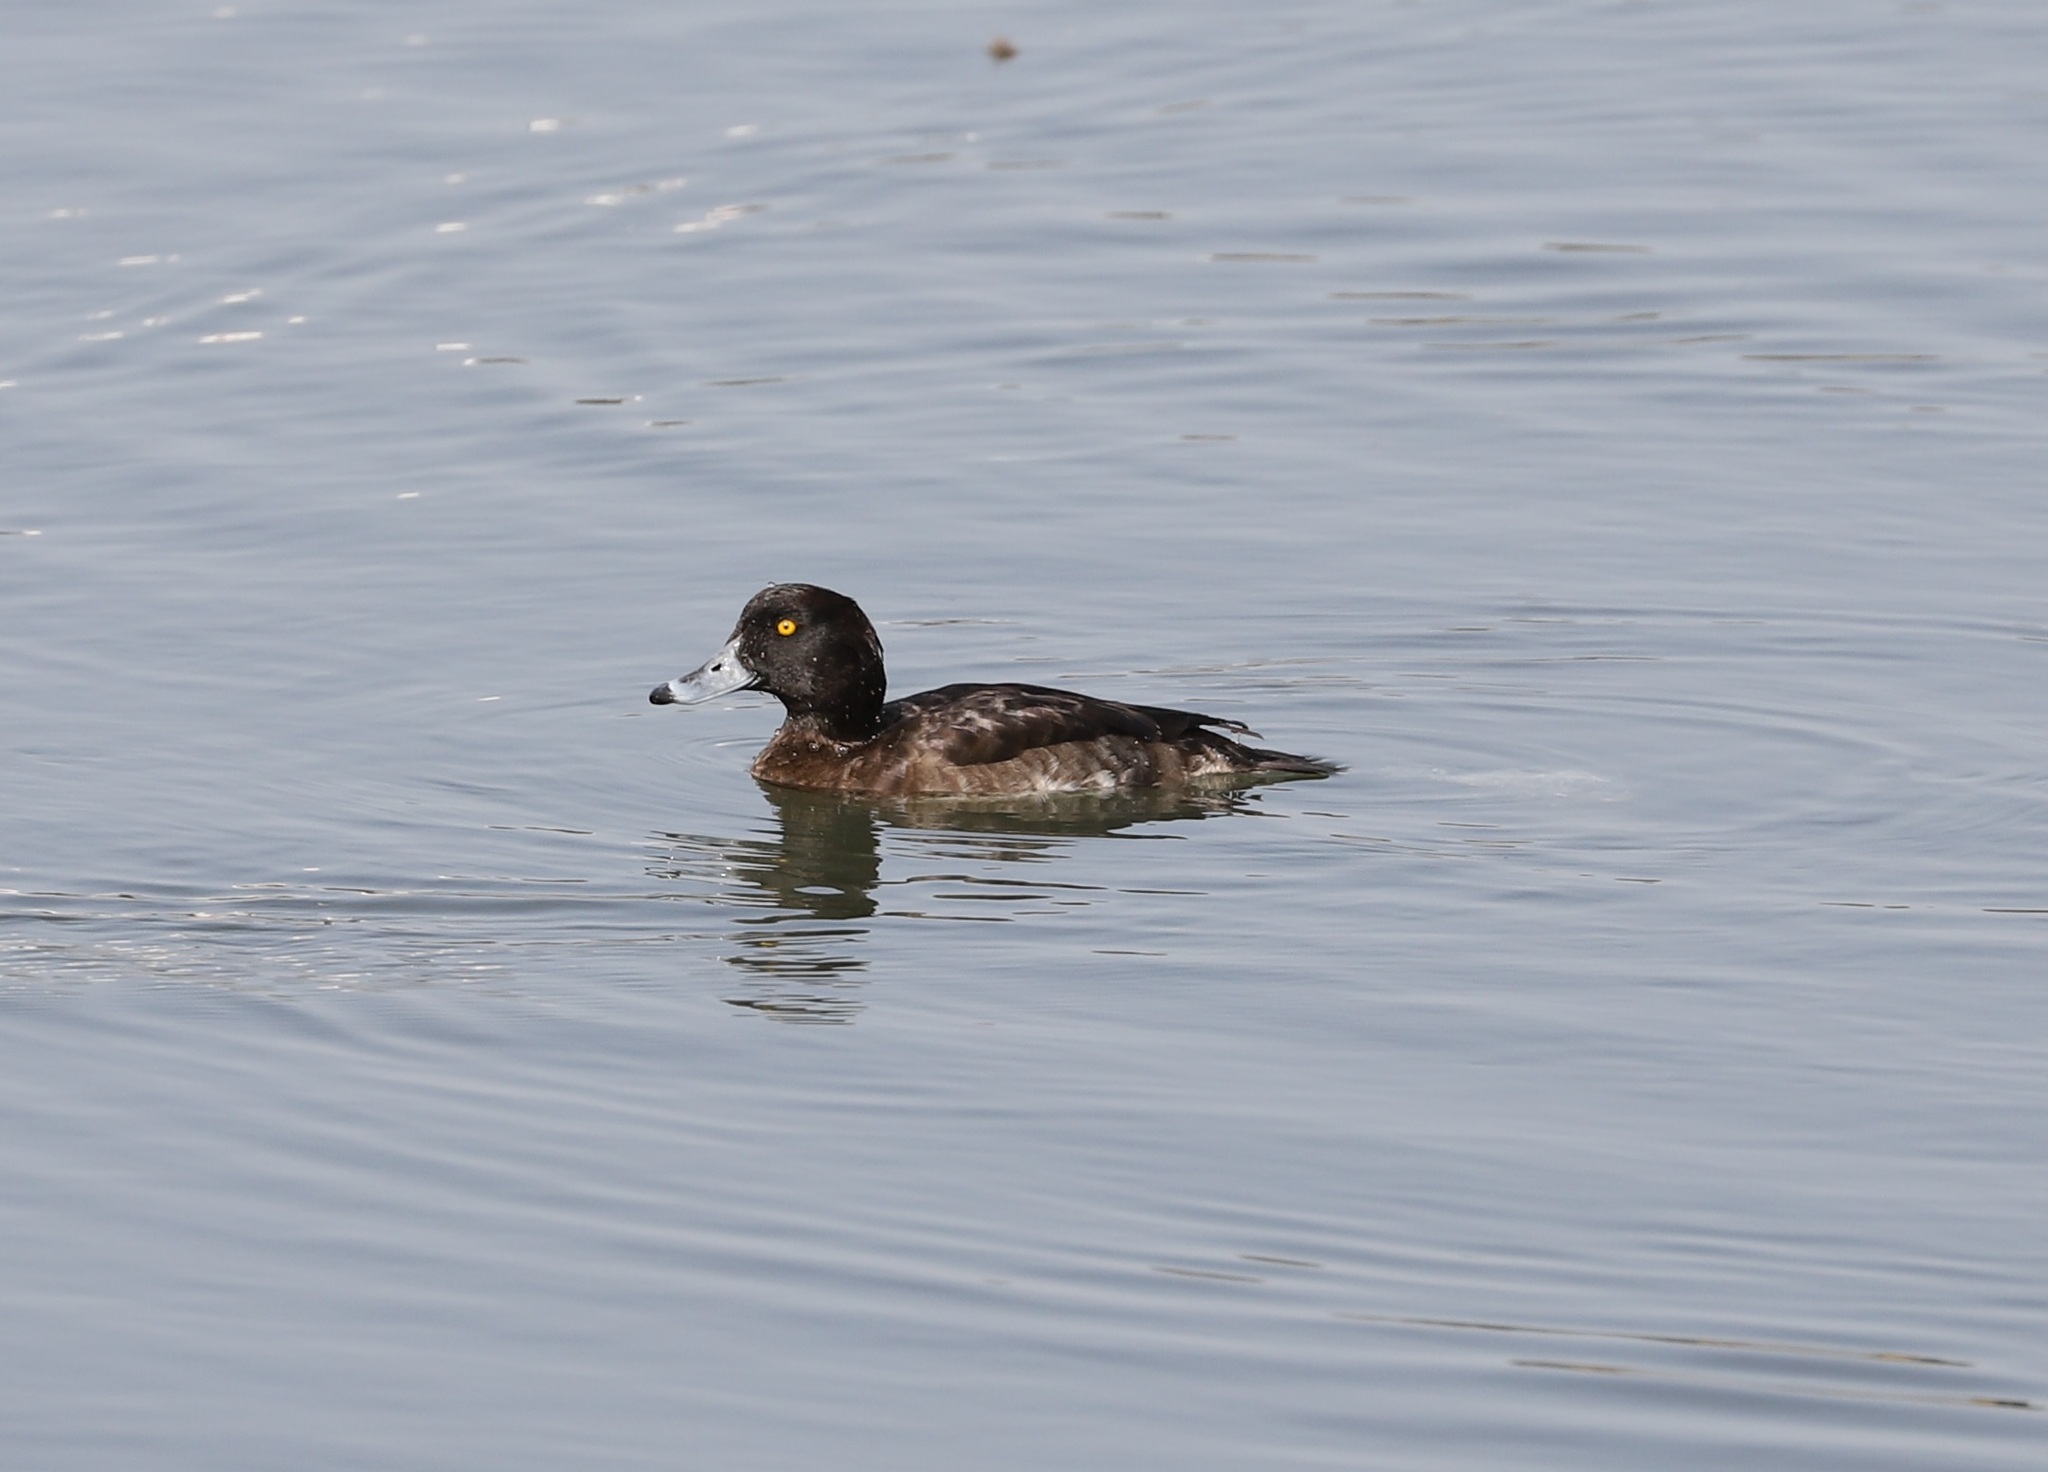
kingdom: Animalia
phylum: Chordata
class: Aves
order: Anseriformes
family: Anatidae
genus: Aythya
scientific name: Aythya fuligula
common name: Tufted duck
